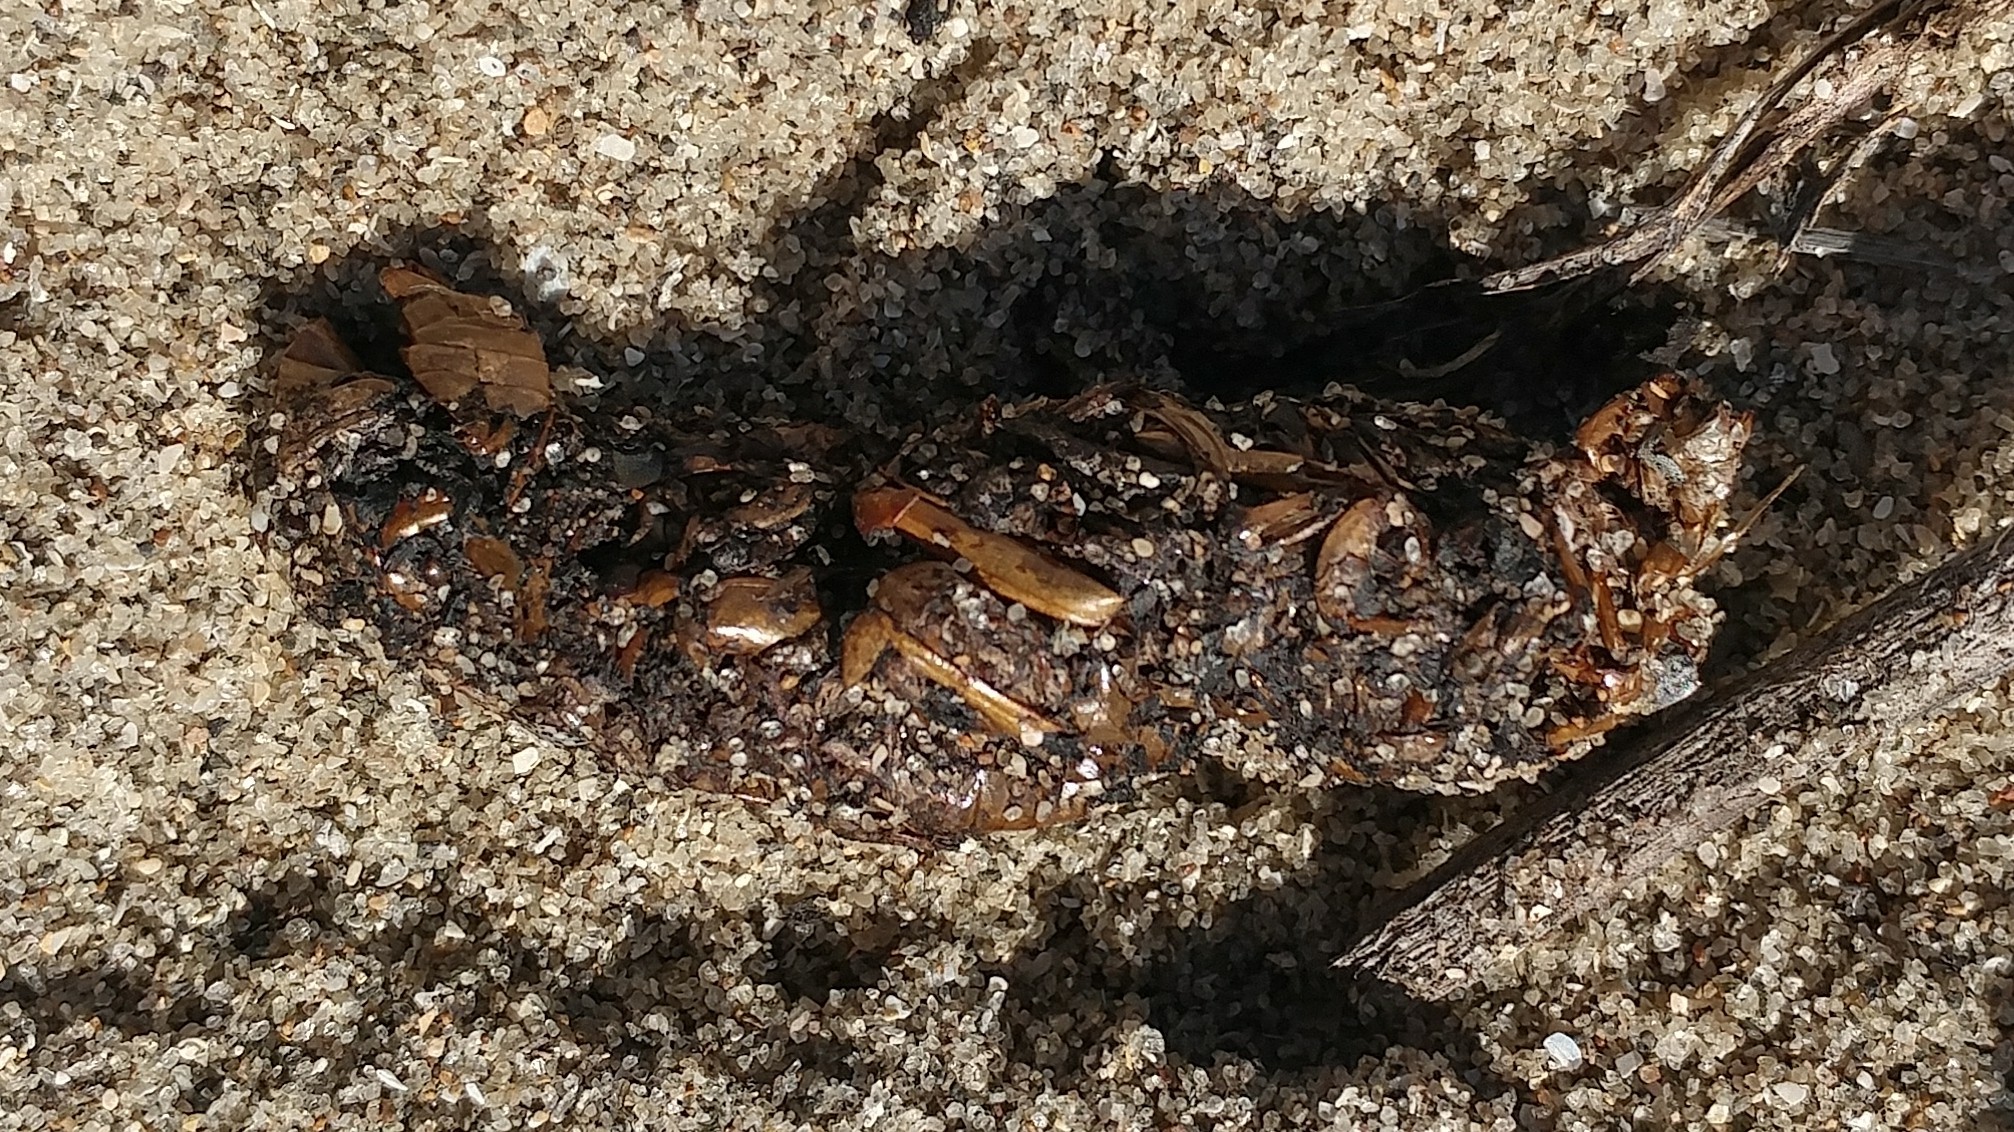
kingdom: Animalia
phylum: Chordata
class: Mammalia
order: Carnivora
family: Canidae
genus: Urocyon
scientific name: Urocyon littoralis
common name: Island gray fox
